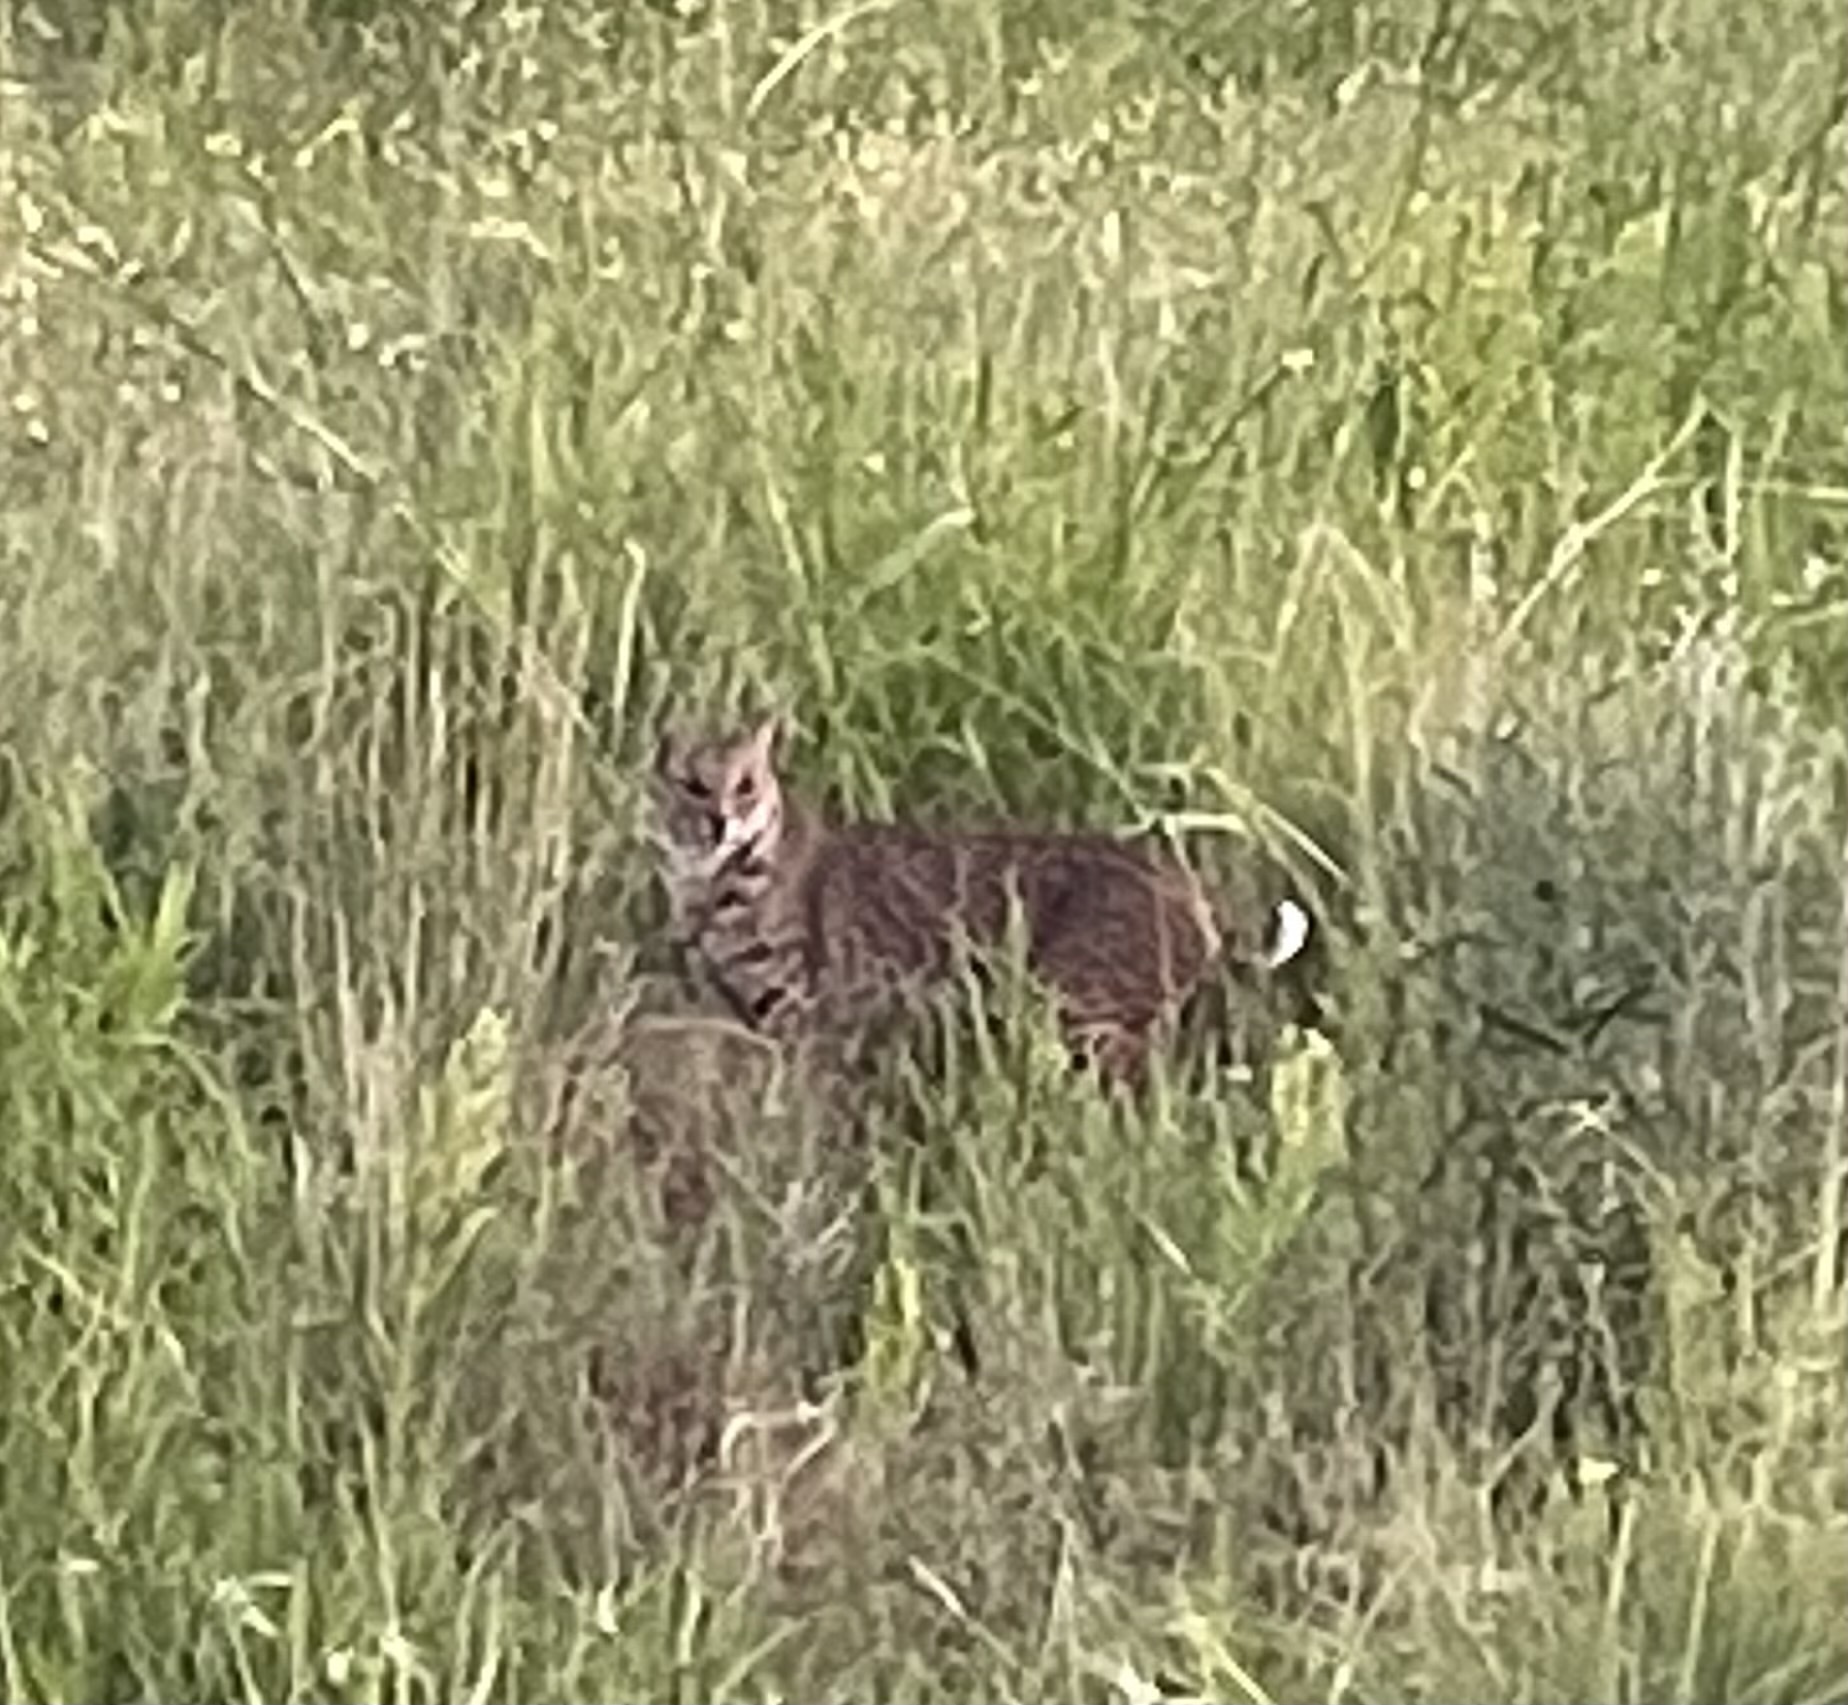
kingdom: Animalia
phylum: Chordata
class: Mammalia
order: Carnivora
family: Felidae
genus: Lynx
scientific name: Lynx rufus
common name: Bobcat
